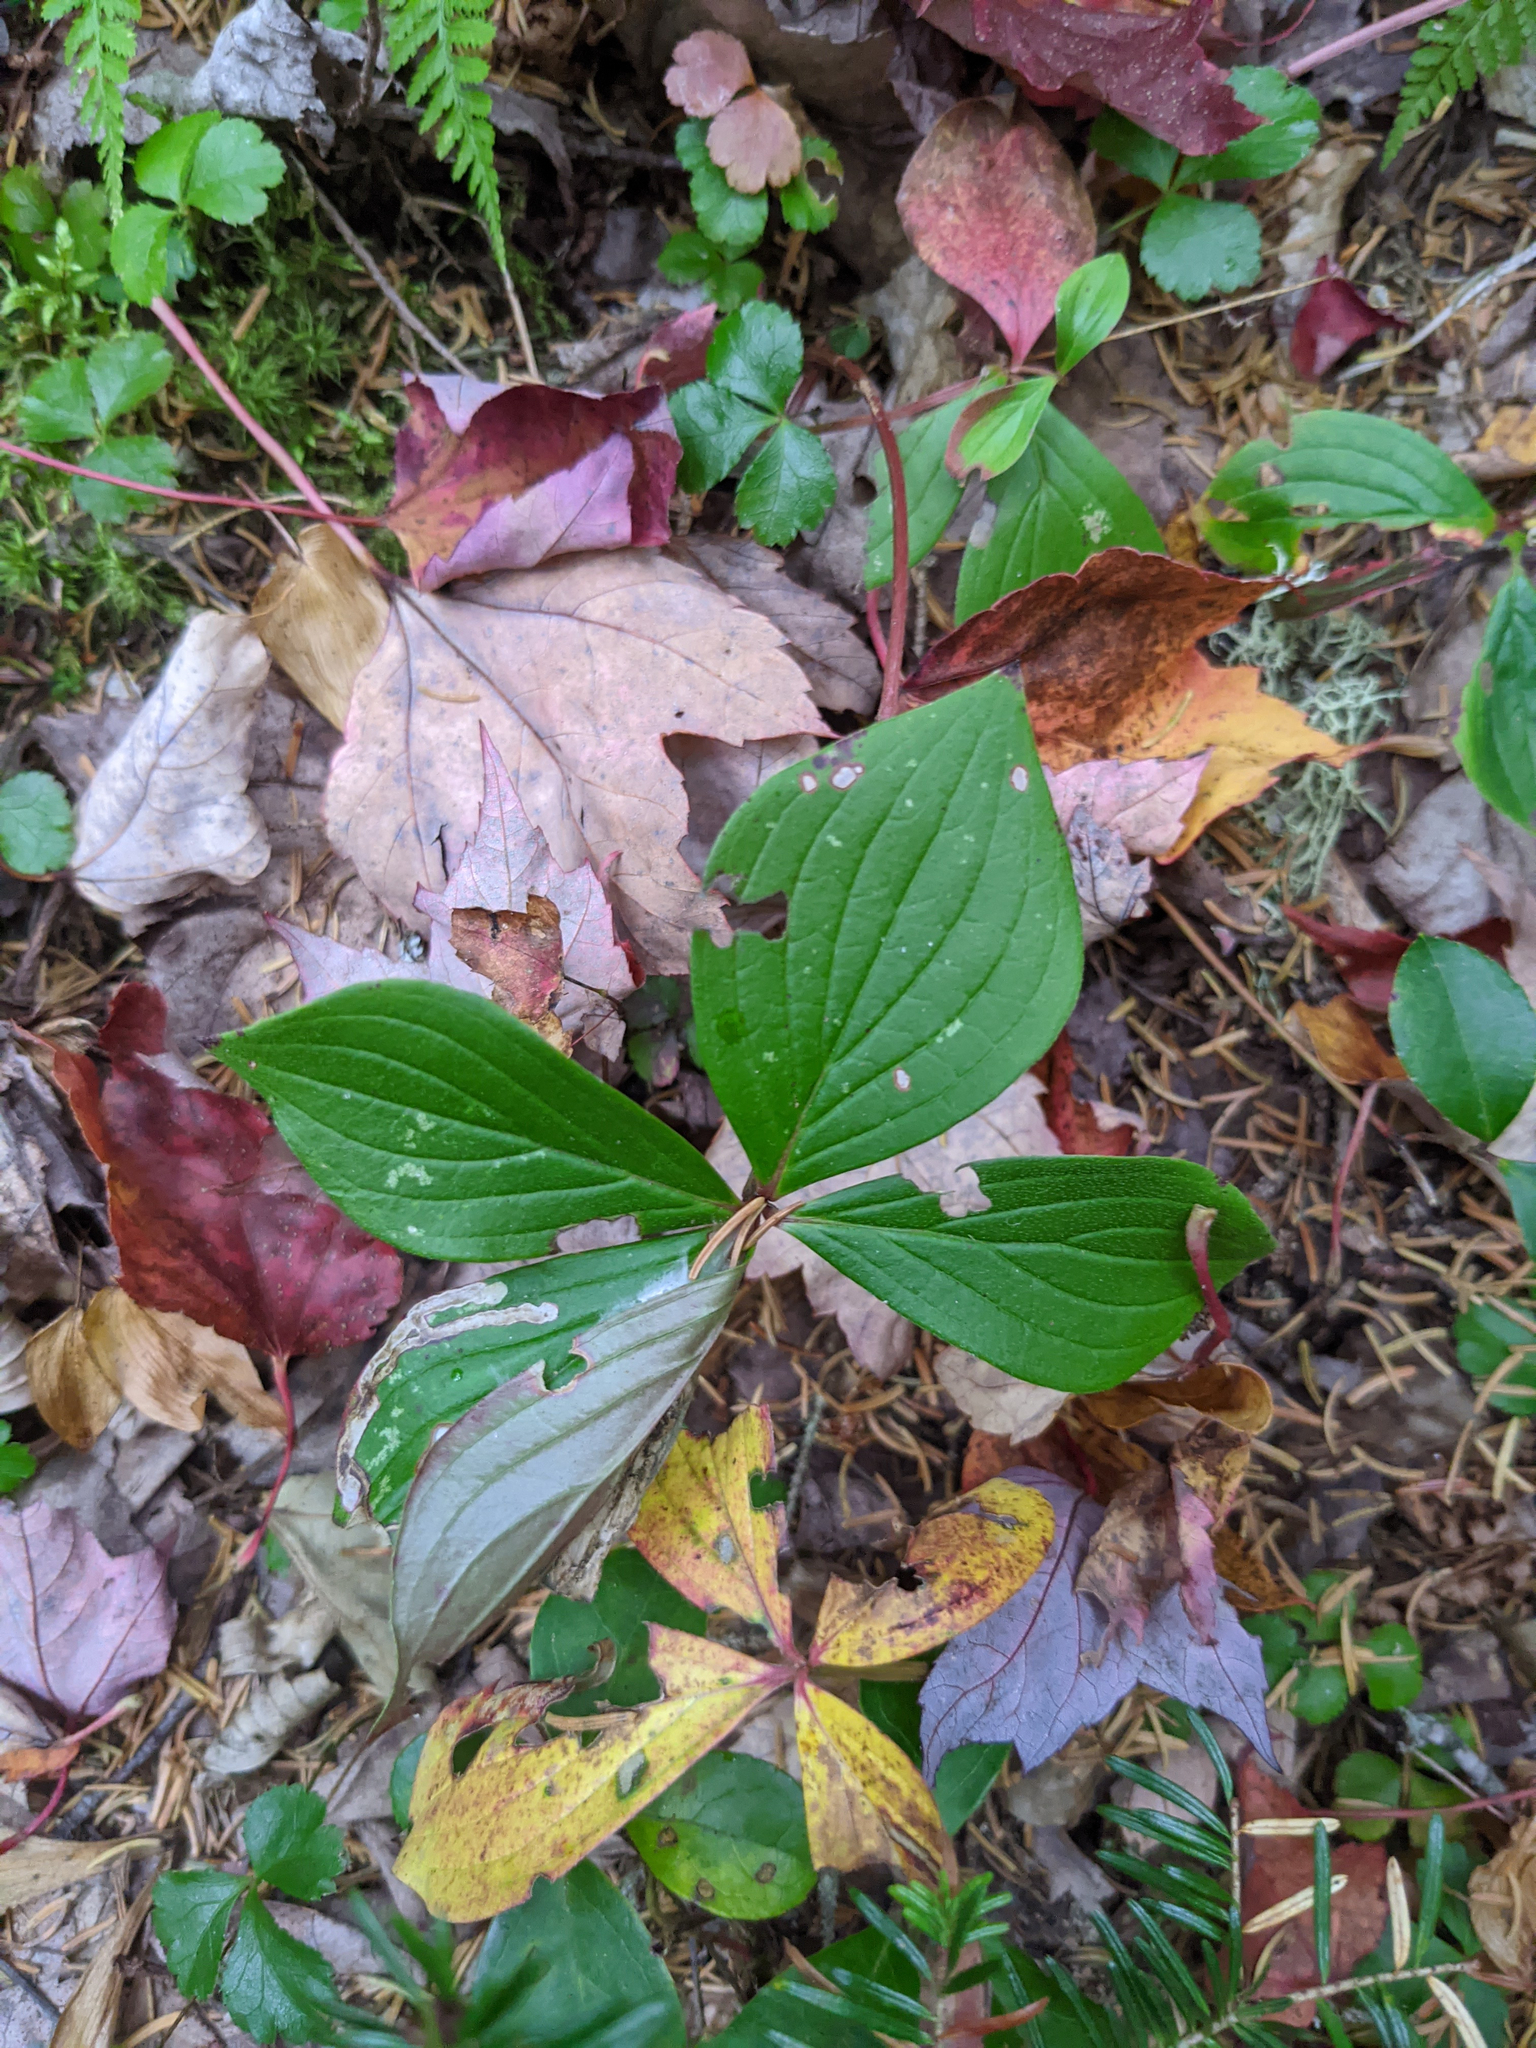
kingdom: Plantae
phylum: Tracheophyta
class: Magnoliopsida
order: Cornales
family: Cornaceae
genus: Cornus
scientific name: Cornus canadensis
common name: Creeping dogwood
